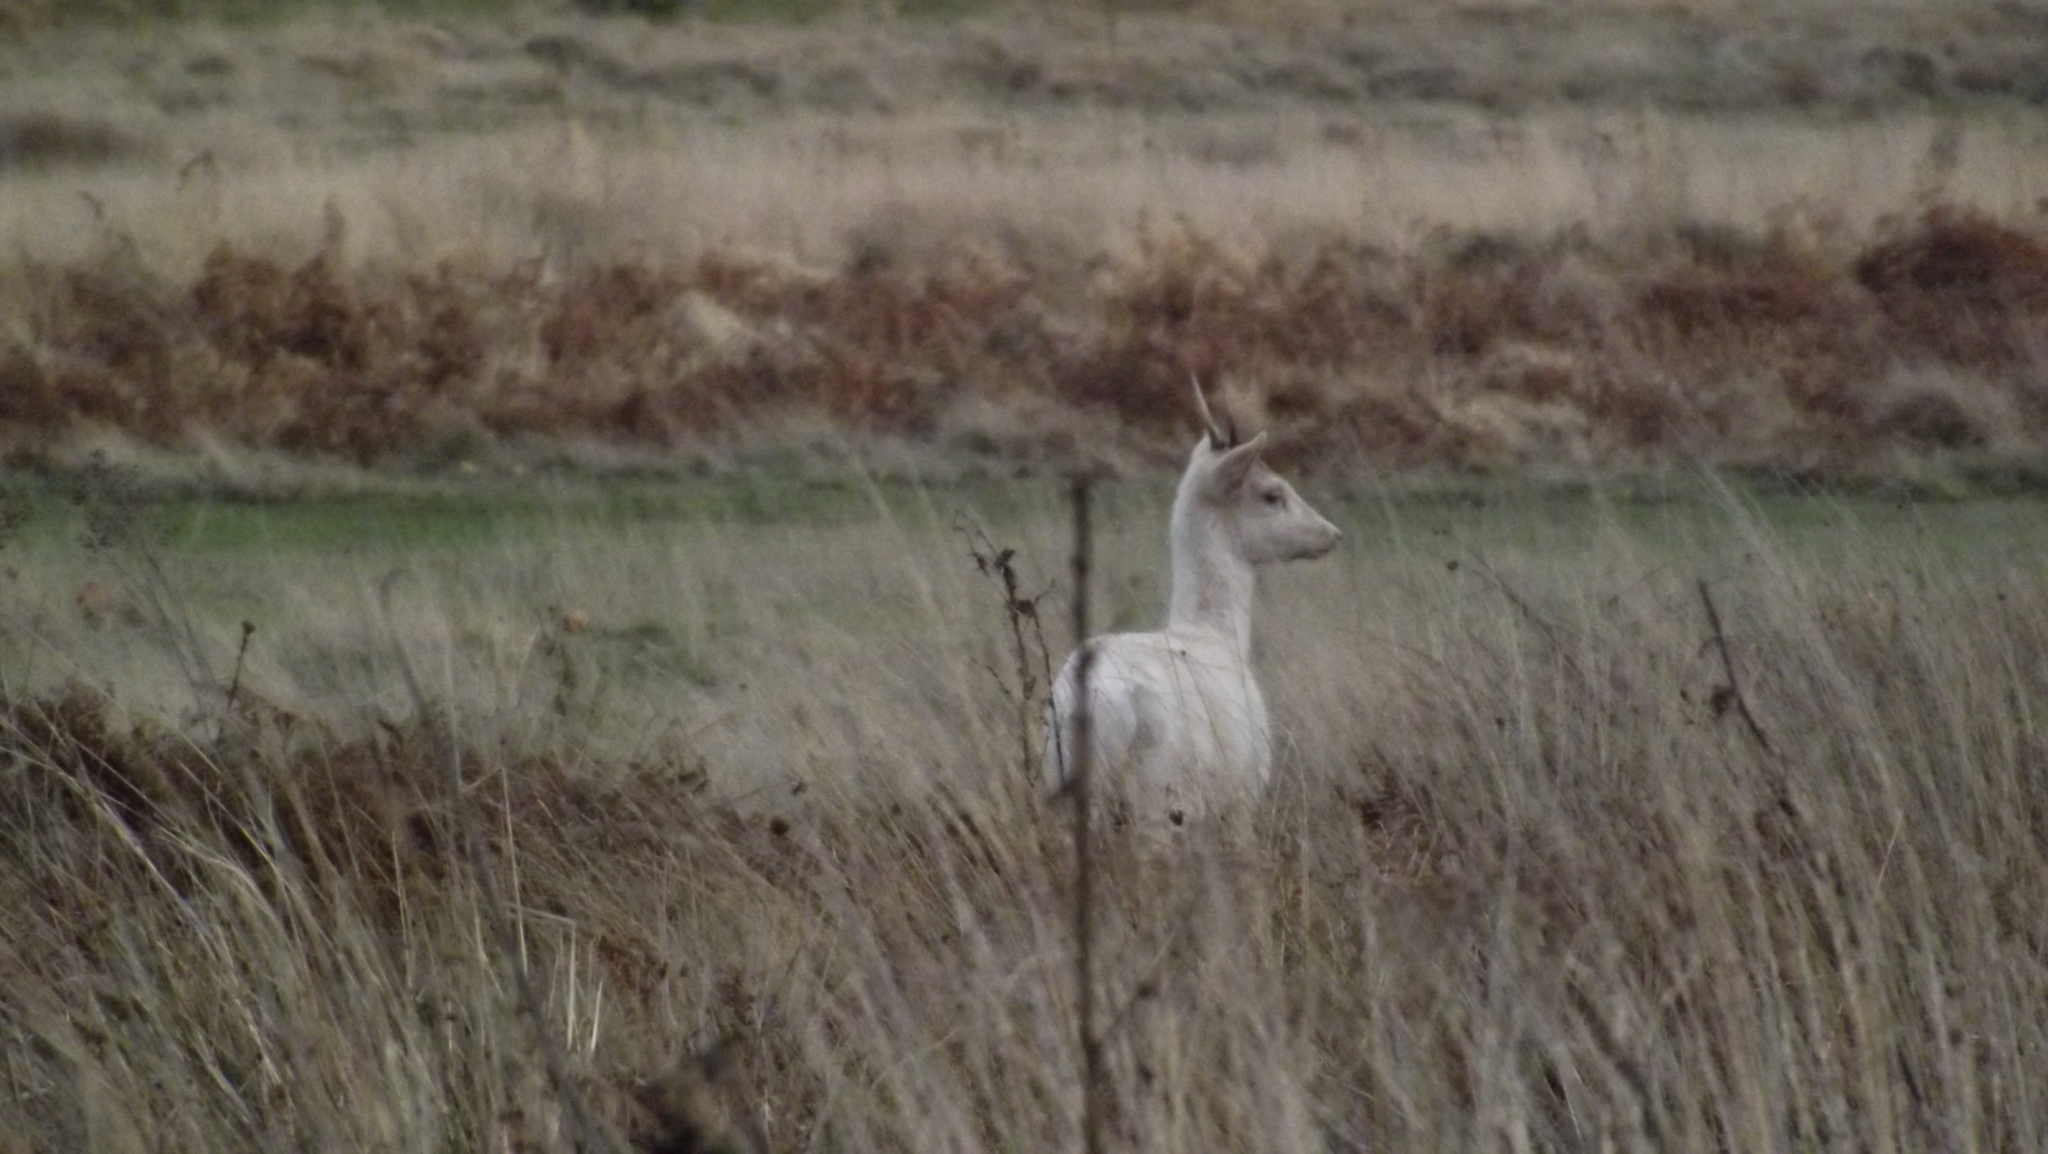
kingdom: Animalia
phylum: Chordata
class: Mammalia
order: Artiodactyla
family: Cervidae
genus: Dama
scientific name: Dama dama
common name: Fallow deer
